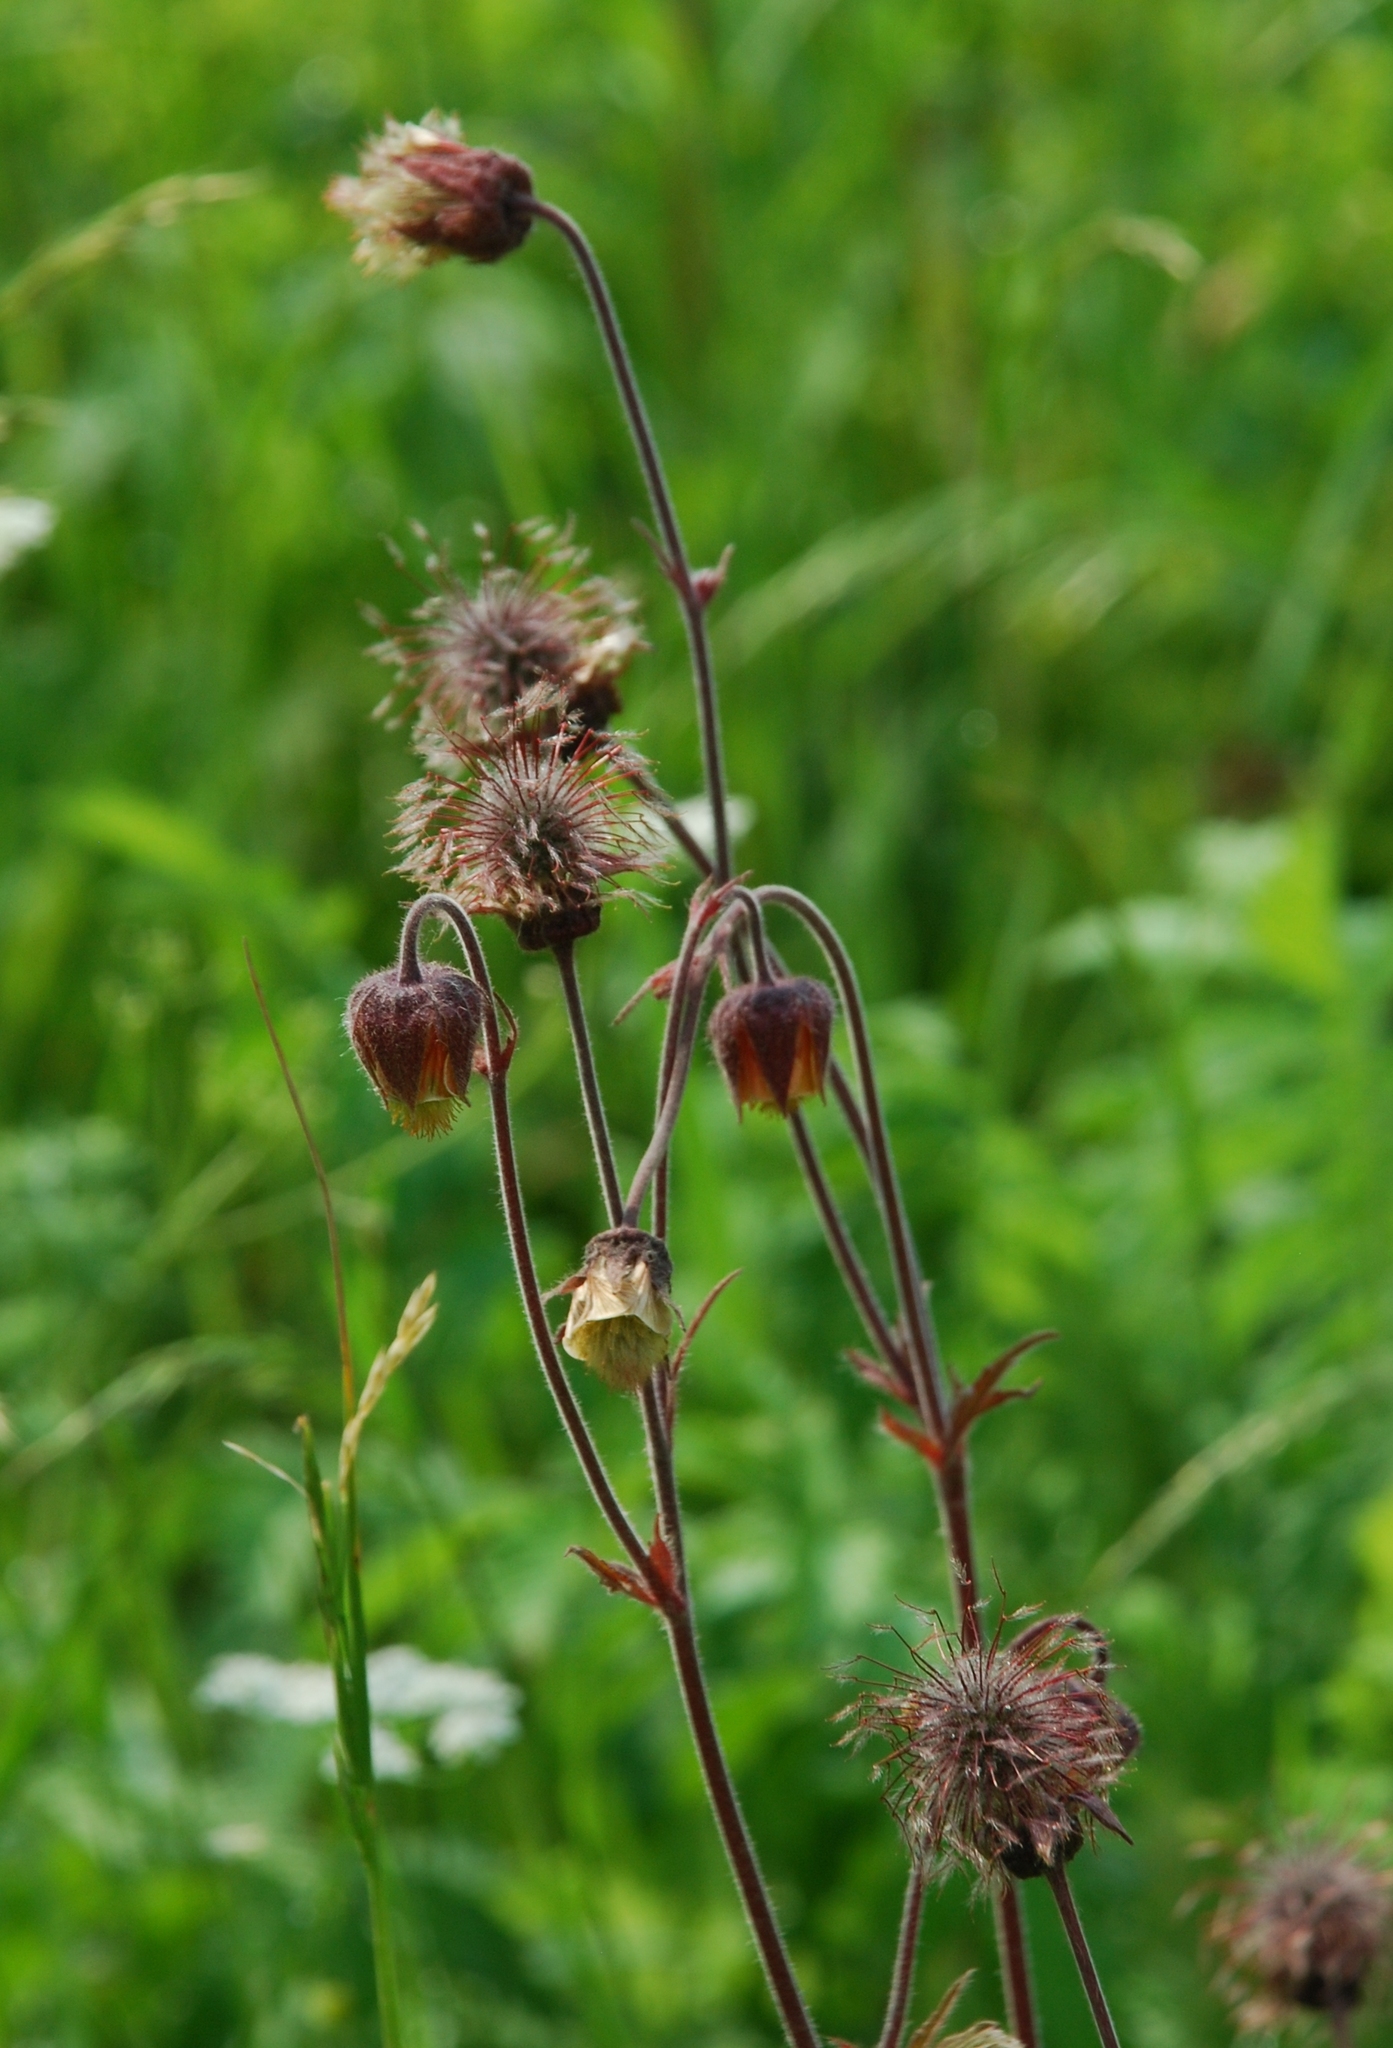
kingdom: Plantae
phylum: Tracheophyta
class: Magnoliopsida
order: Rosales
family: Rosaceae
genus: Geum
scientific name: Geum rivale
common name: Water avens
